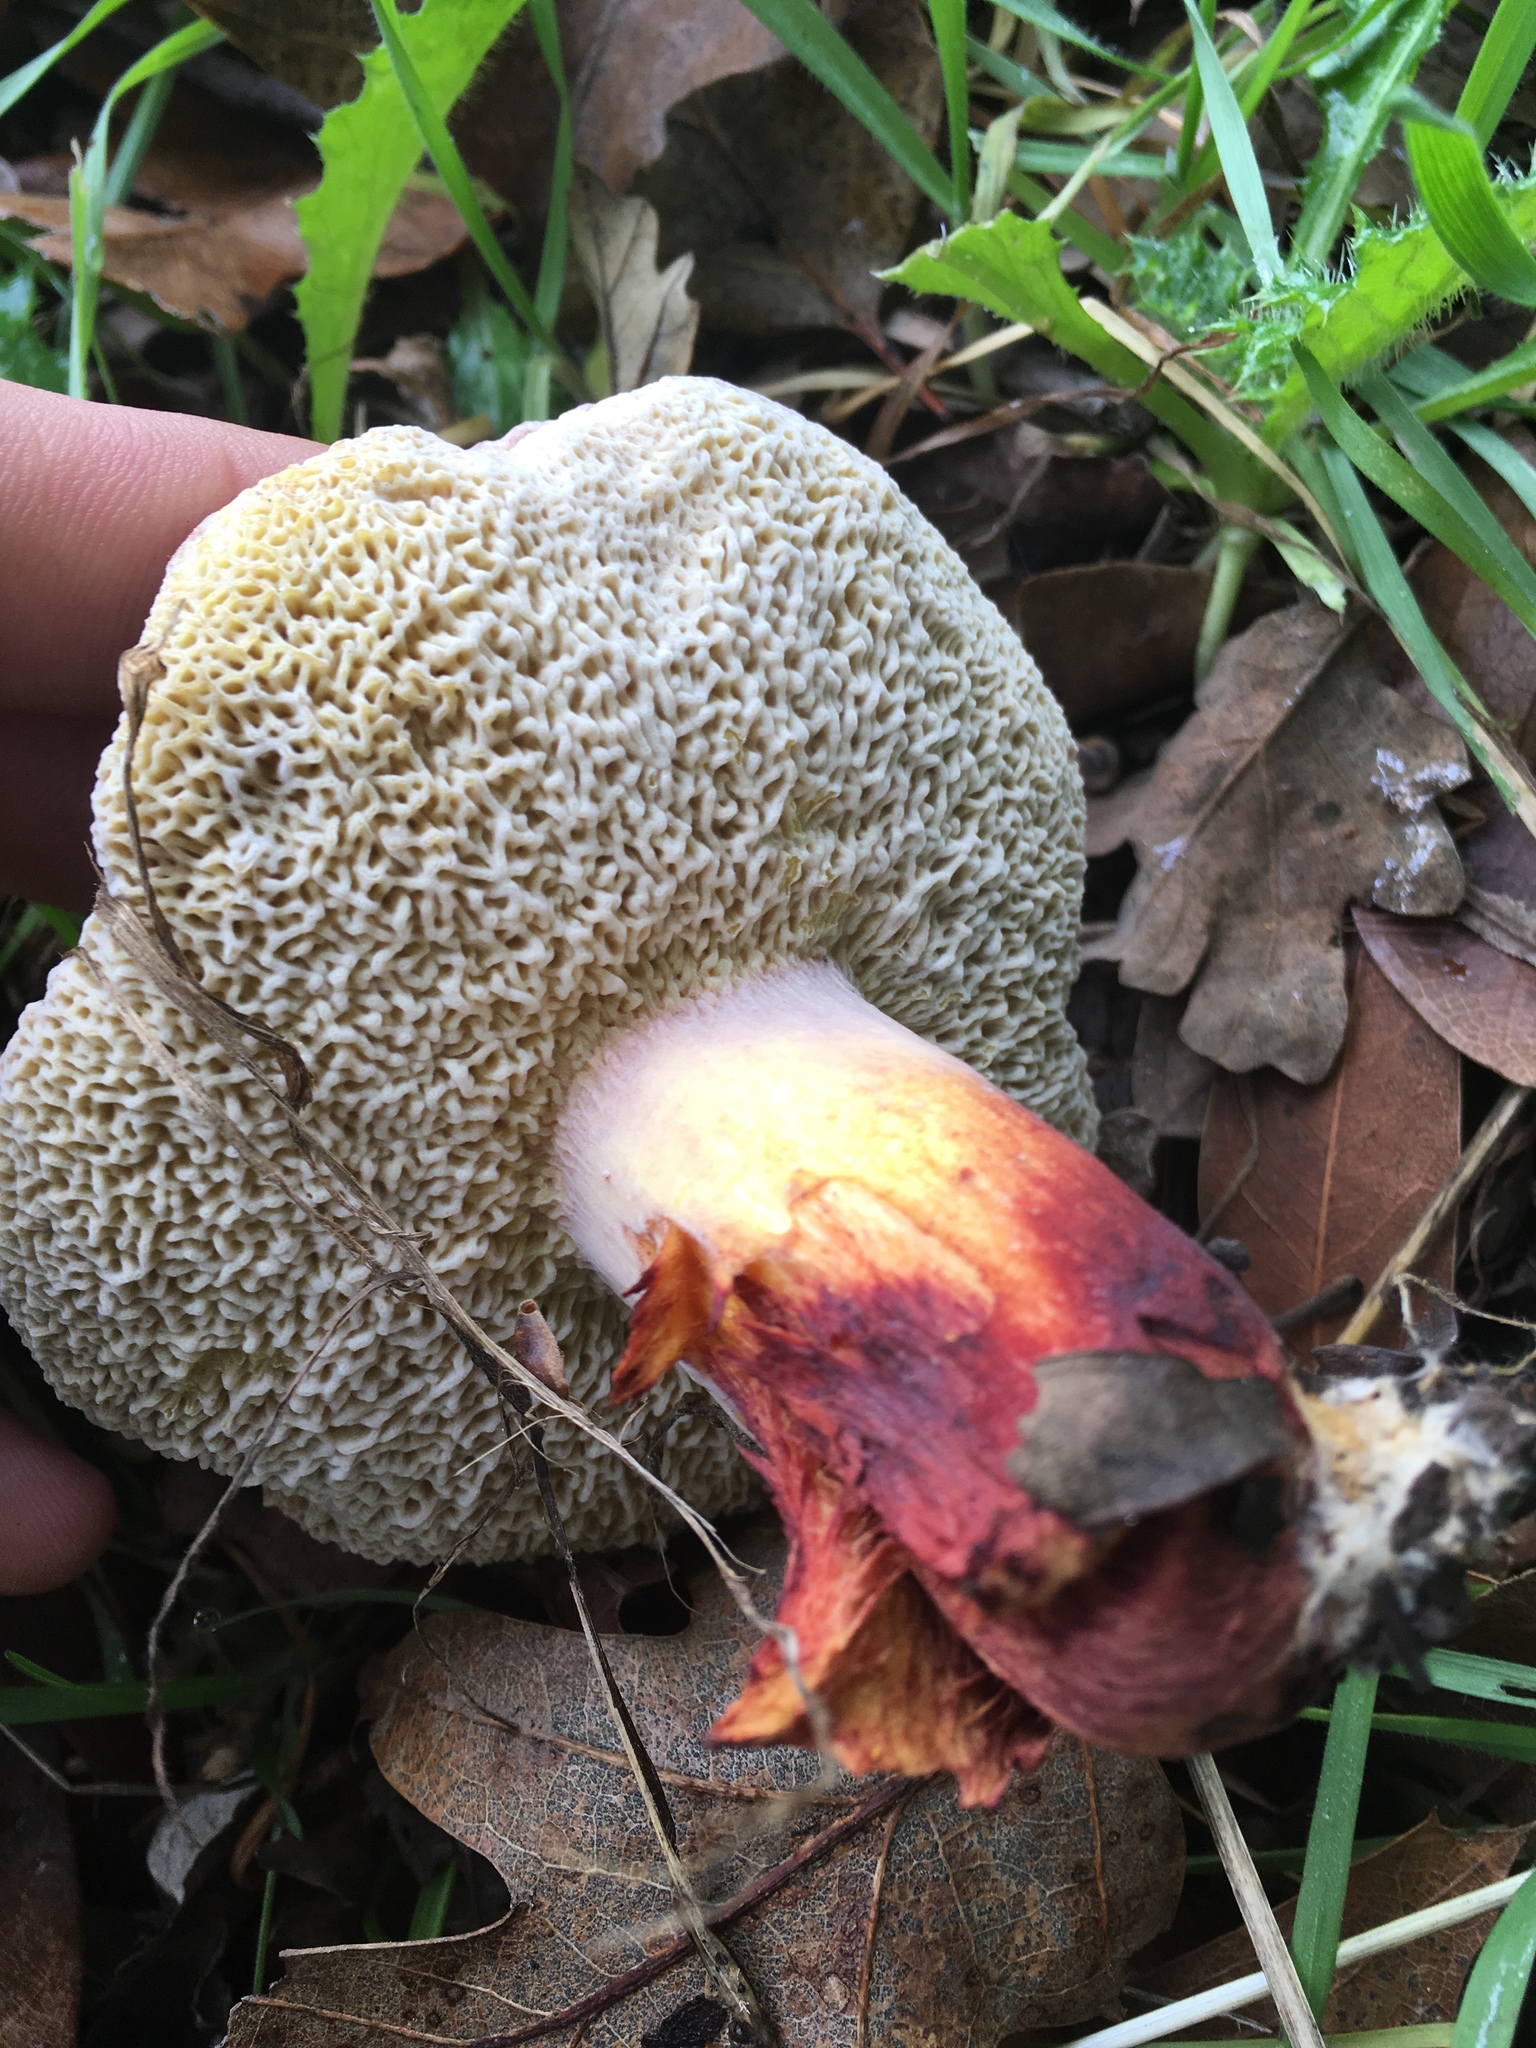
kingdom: Fungi
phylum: Basidiomycota
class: Agaricomycetes
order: Boletales
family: Boletaceae
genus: Xerocomellus
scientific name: Xerocomellus dryophilus
